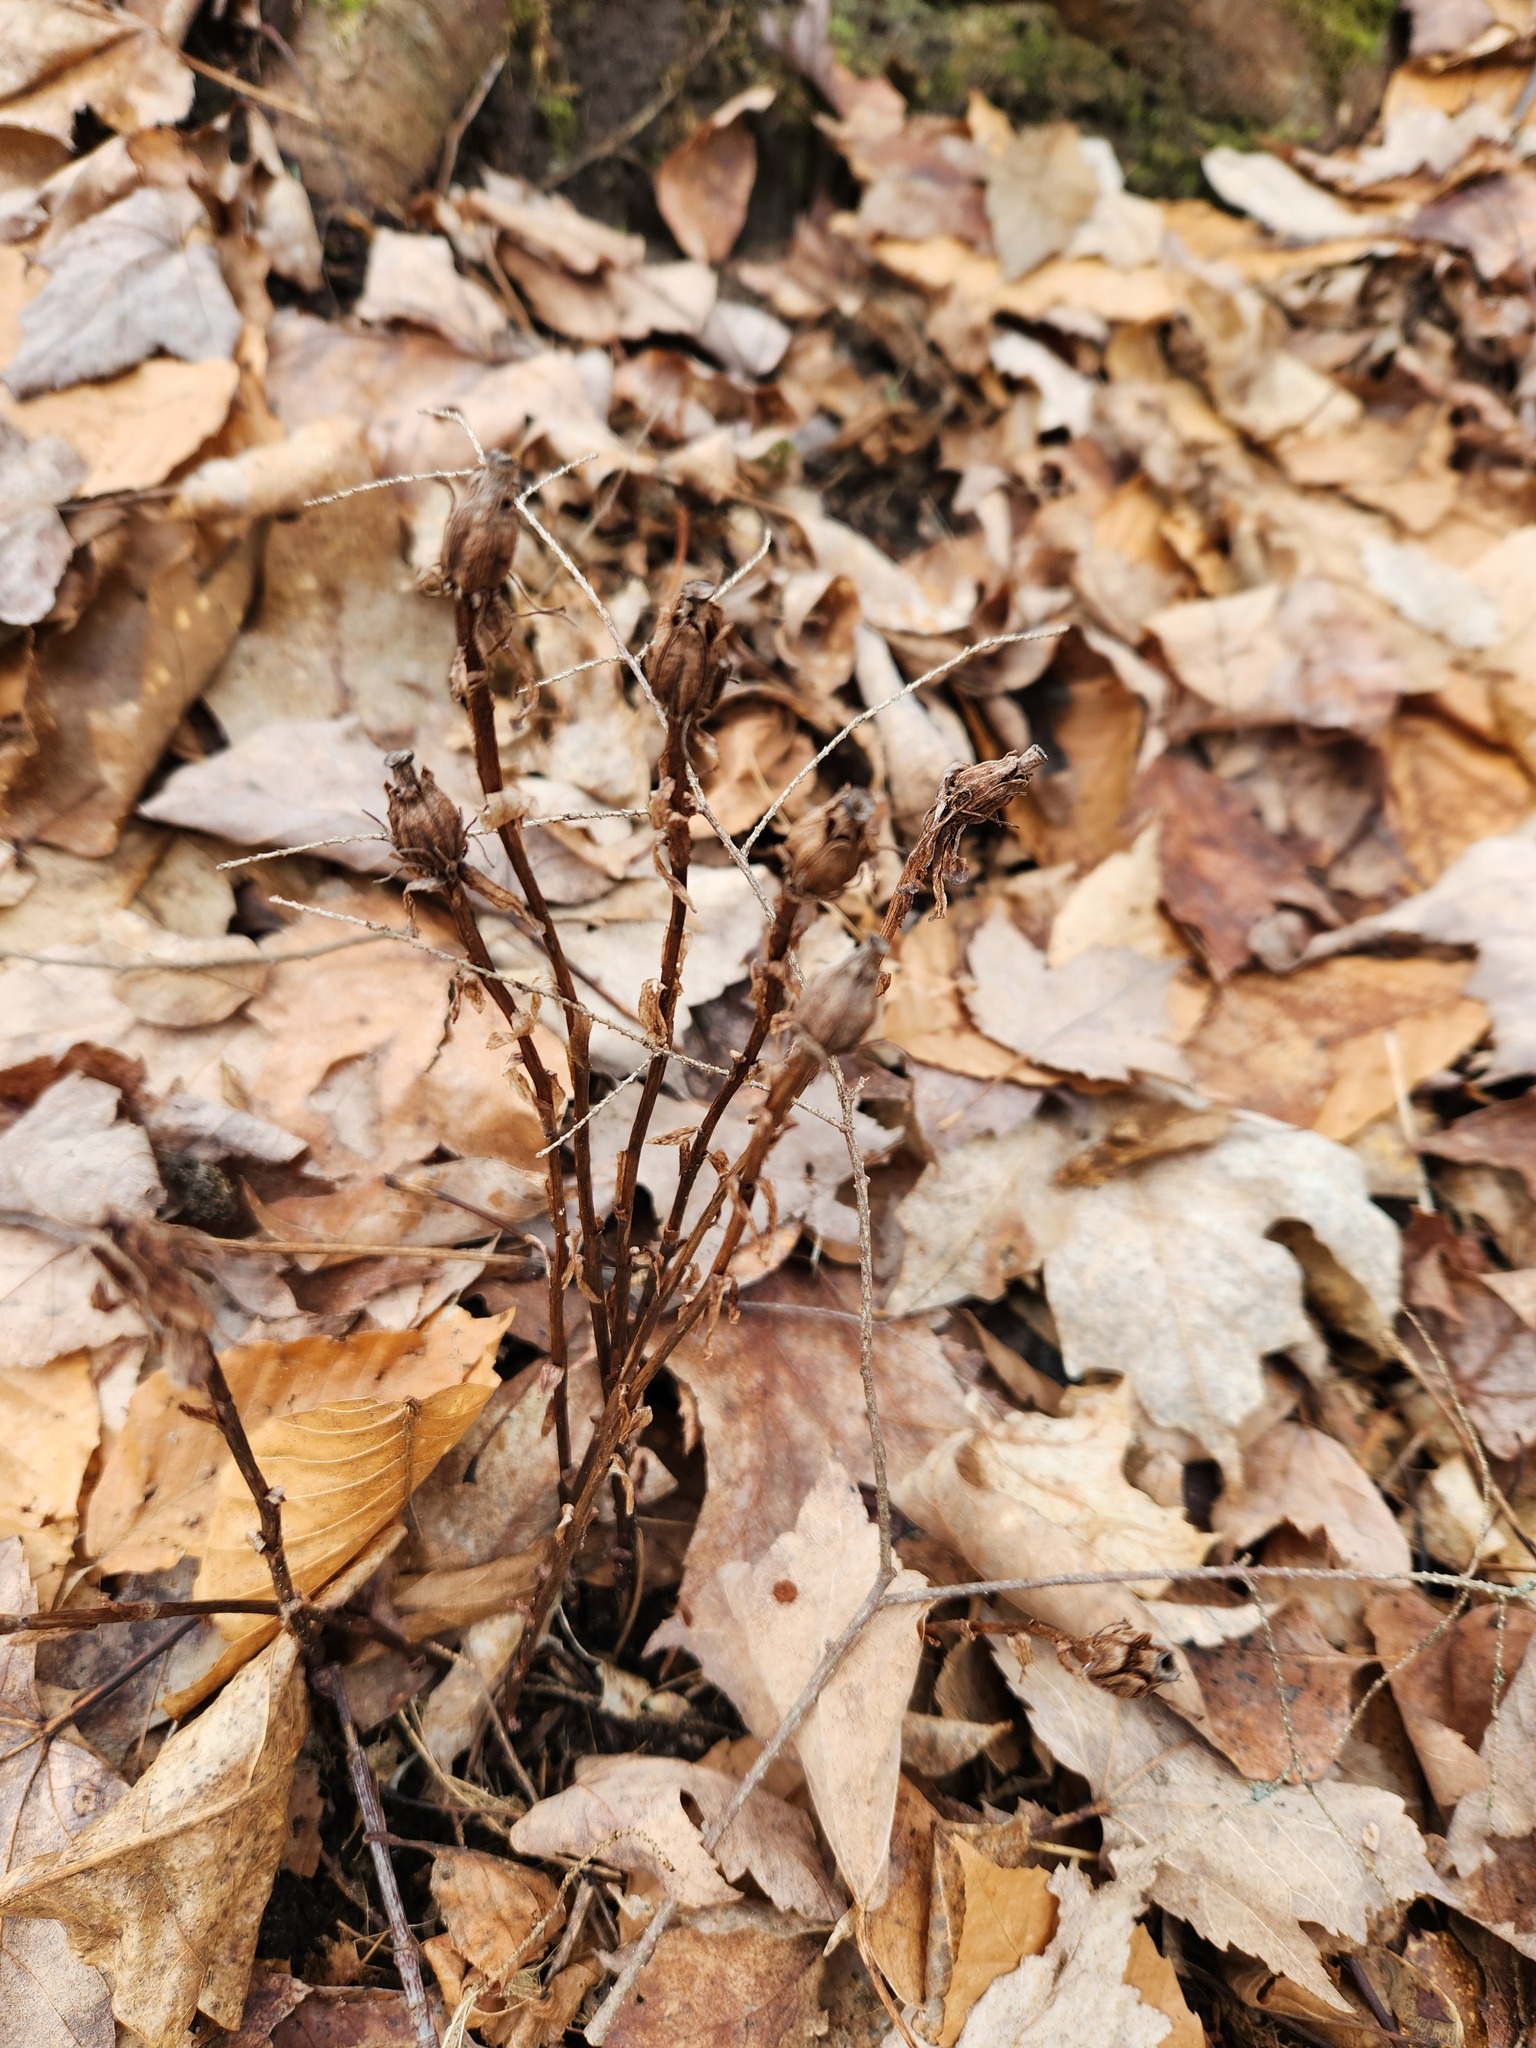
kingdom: Plantae
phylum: Tracheophyta
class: Magnoliopsida
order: Ericales
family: Ericaceae
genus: Monotropa
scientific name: Monotropa uniflora
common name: Convulsion root
